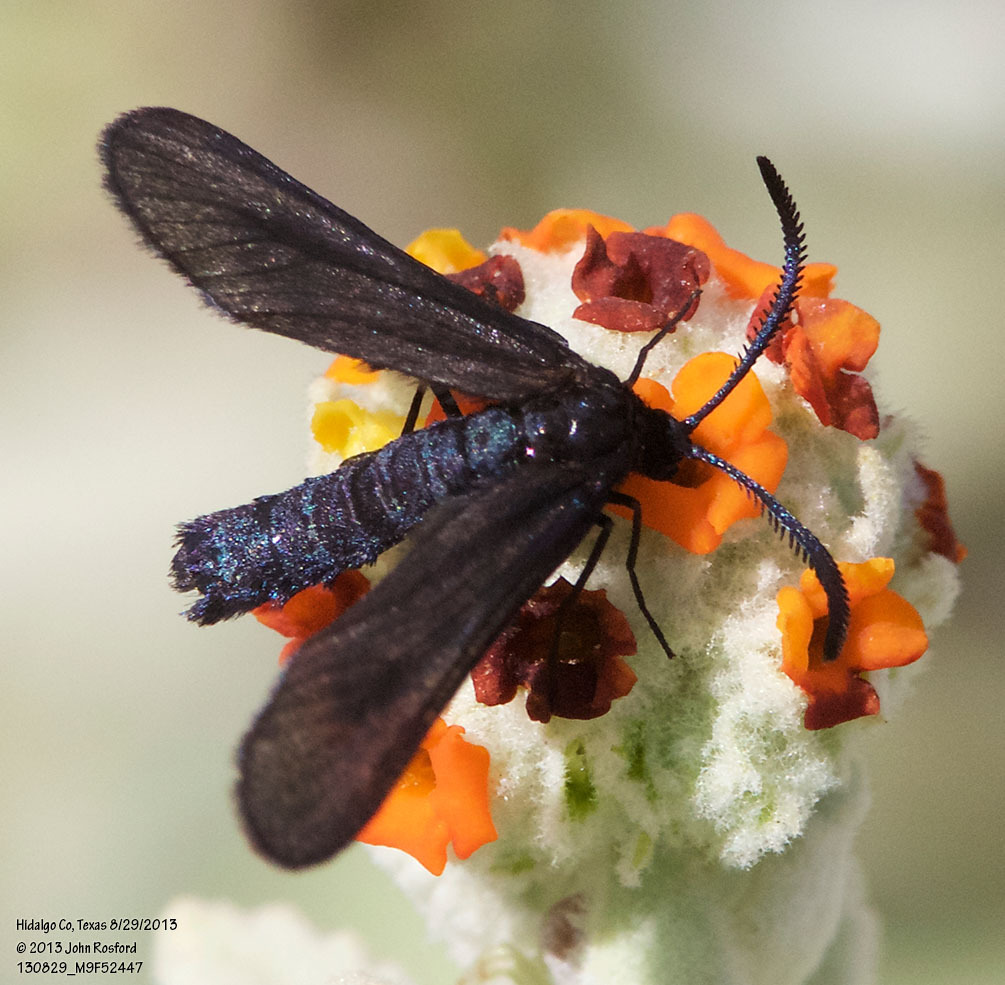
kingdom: Animalia
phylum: Arthropoda
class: Insecta
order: Lepidoptera
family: Zygaenidae
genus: Harrisina
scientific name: Harrisina coracina
